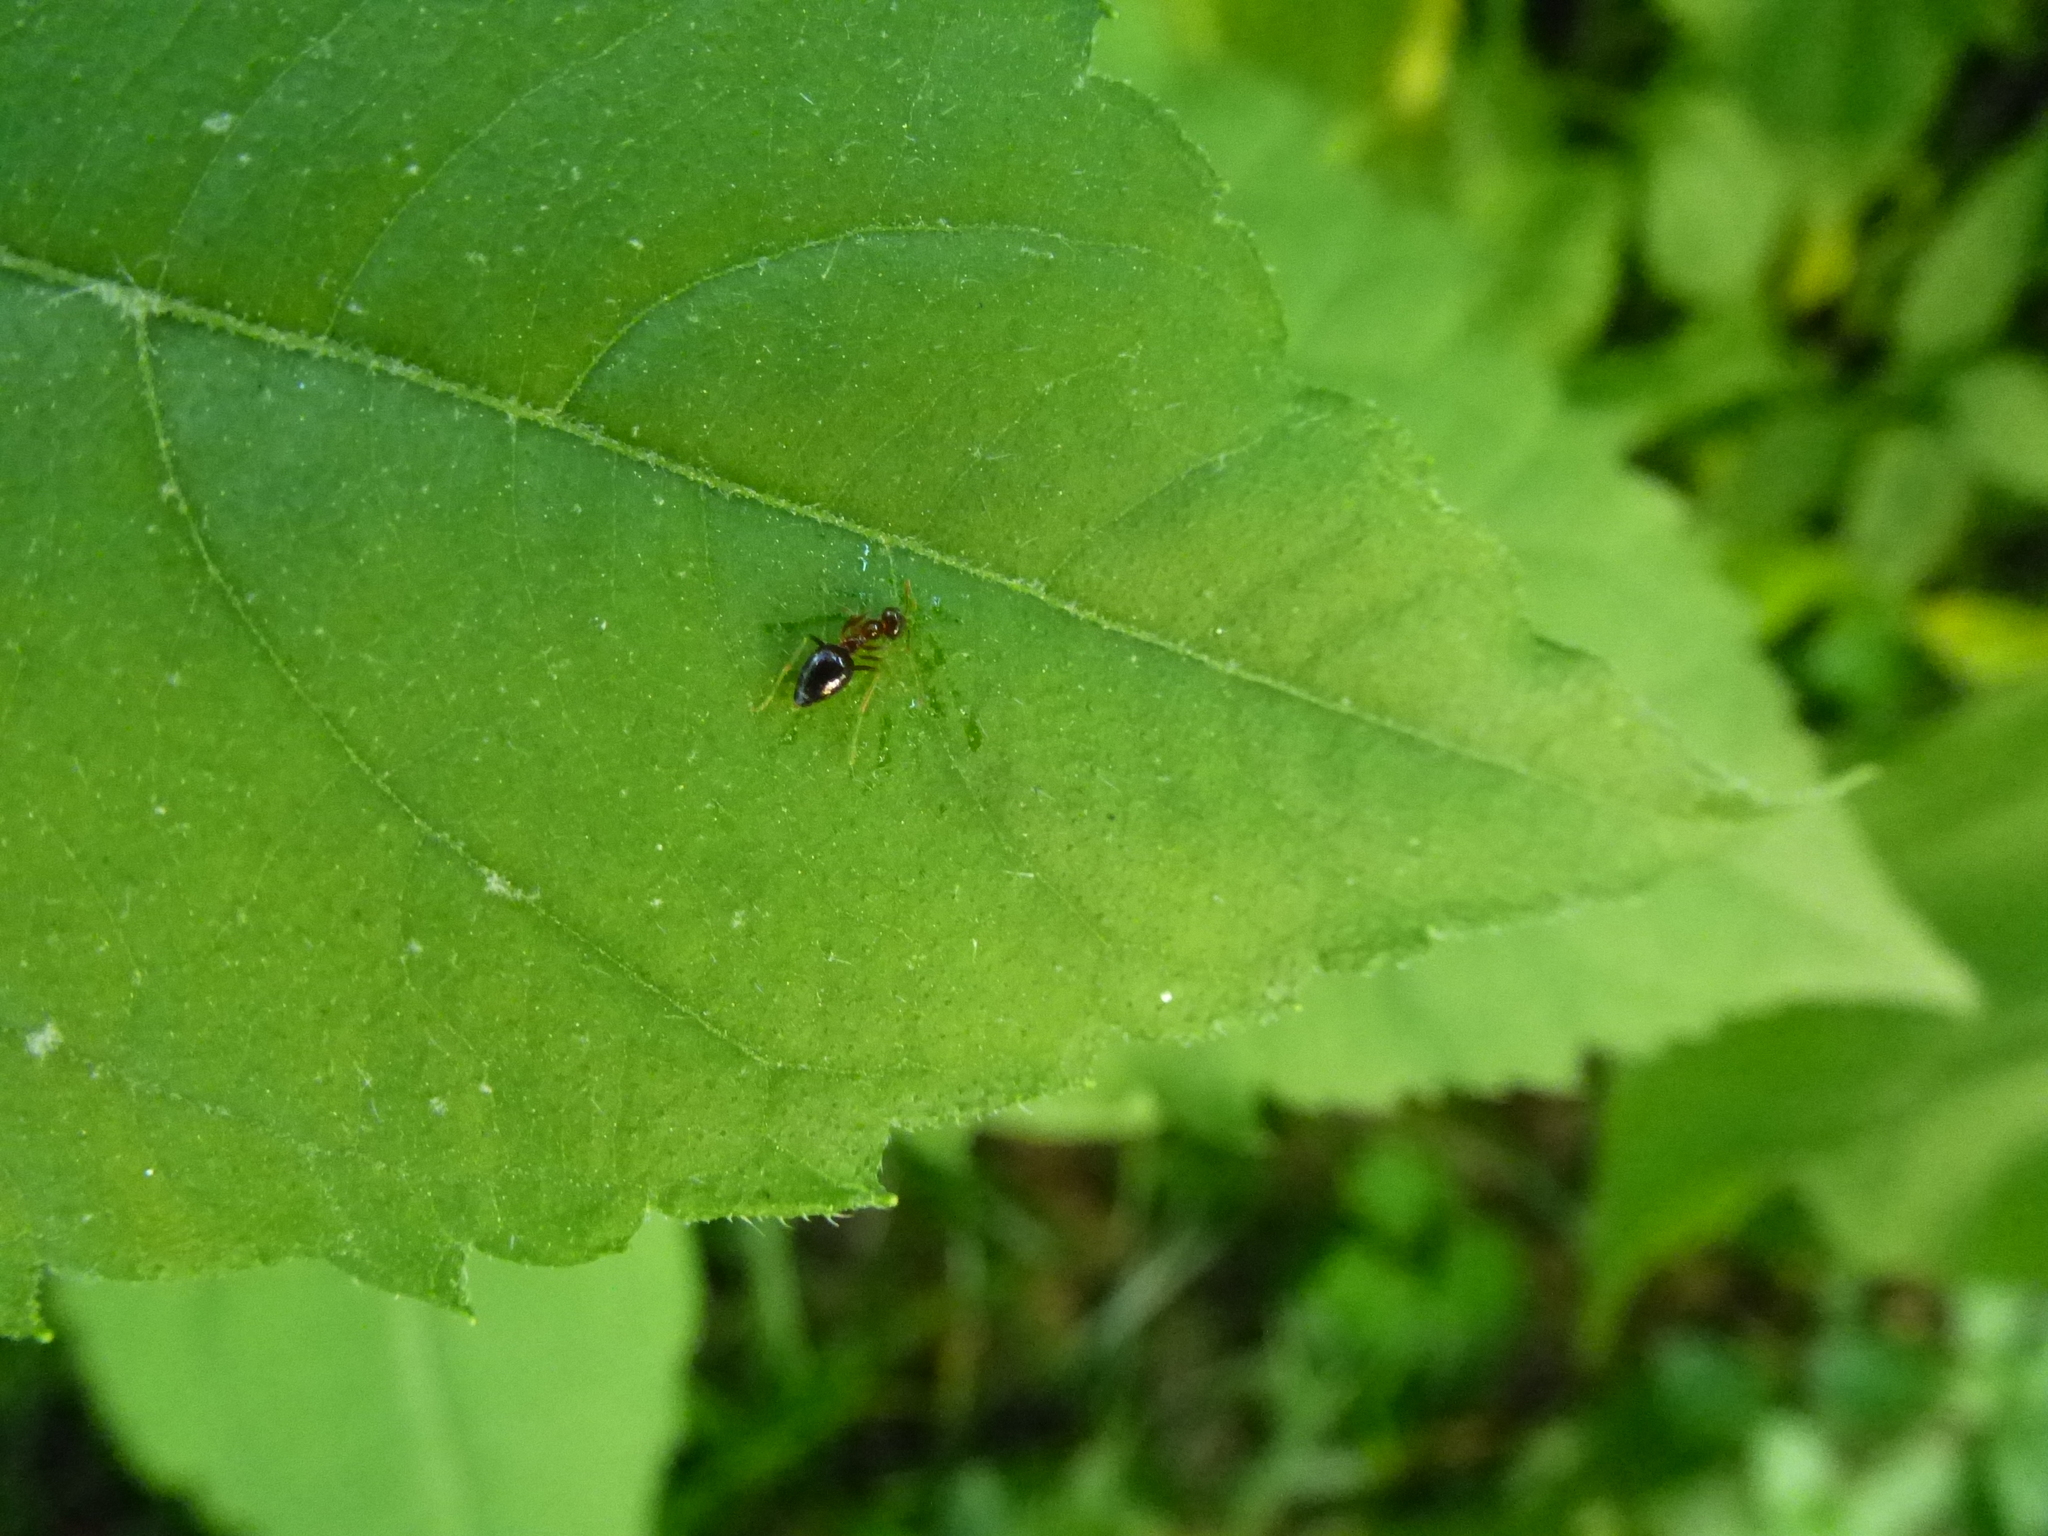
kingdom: Animalia
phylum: Arthropoda
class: Insecta
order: Hymenoptera
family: Formicidae
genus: Prenolepis
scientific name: Prenolepis imparis
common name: Small honey ant
